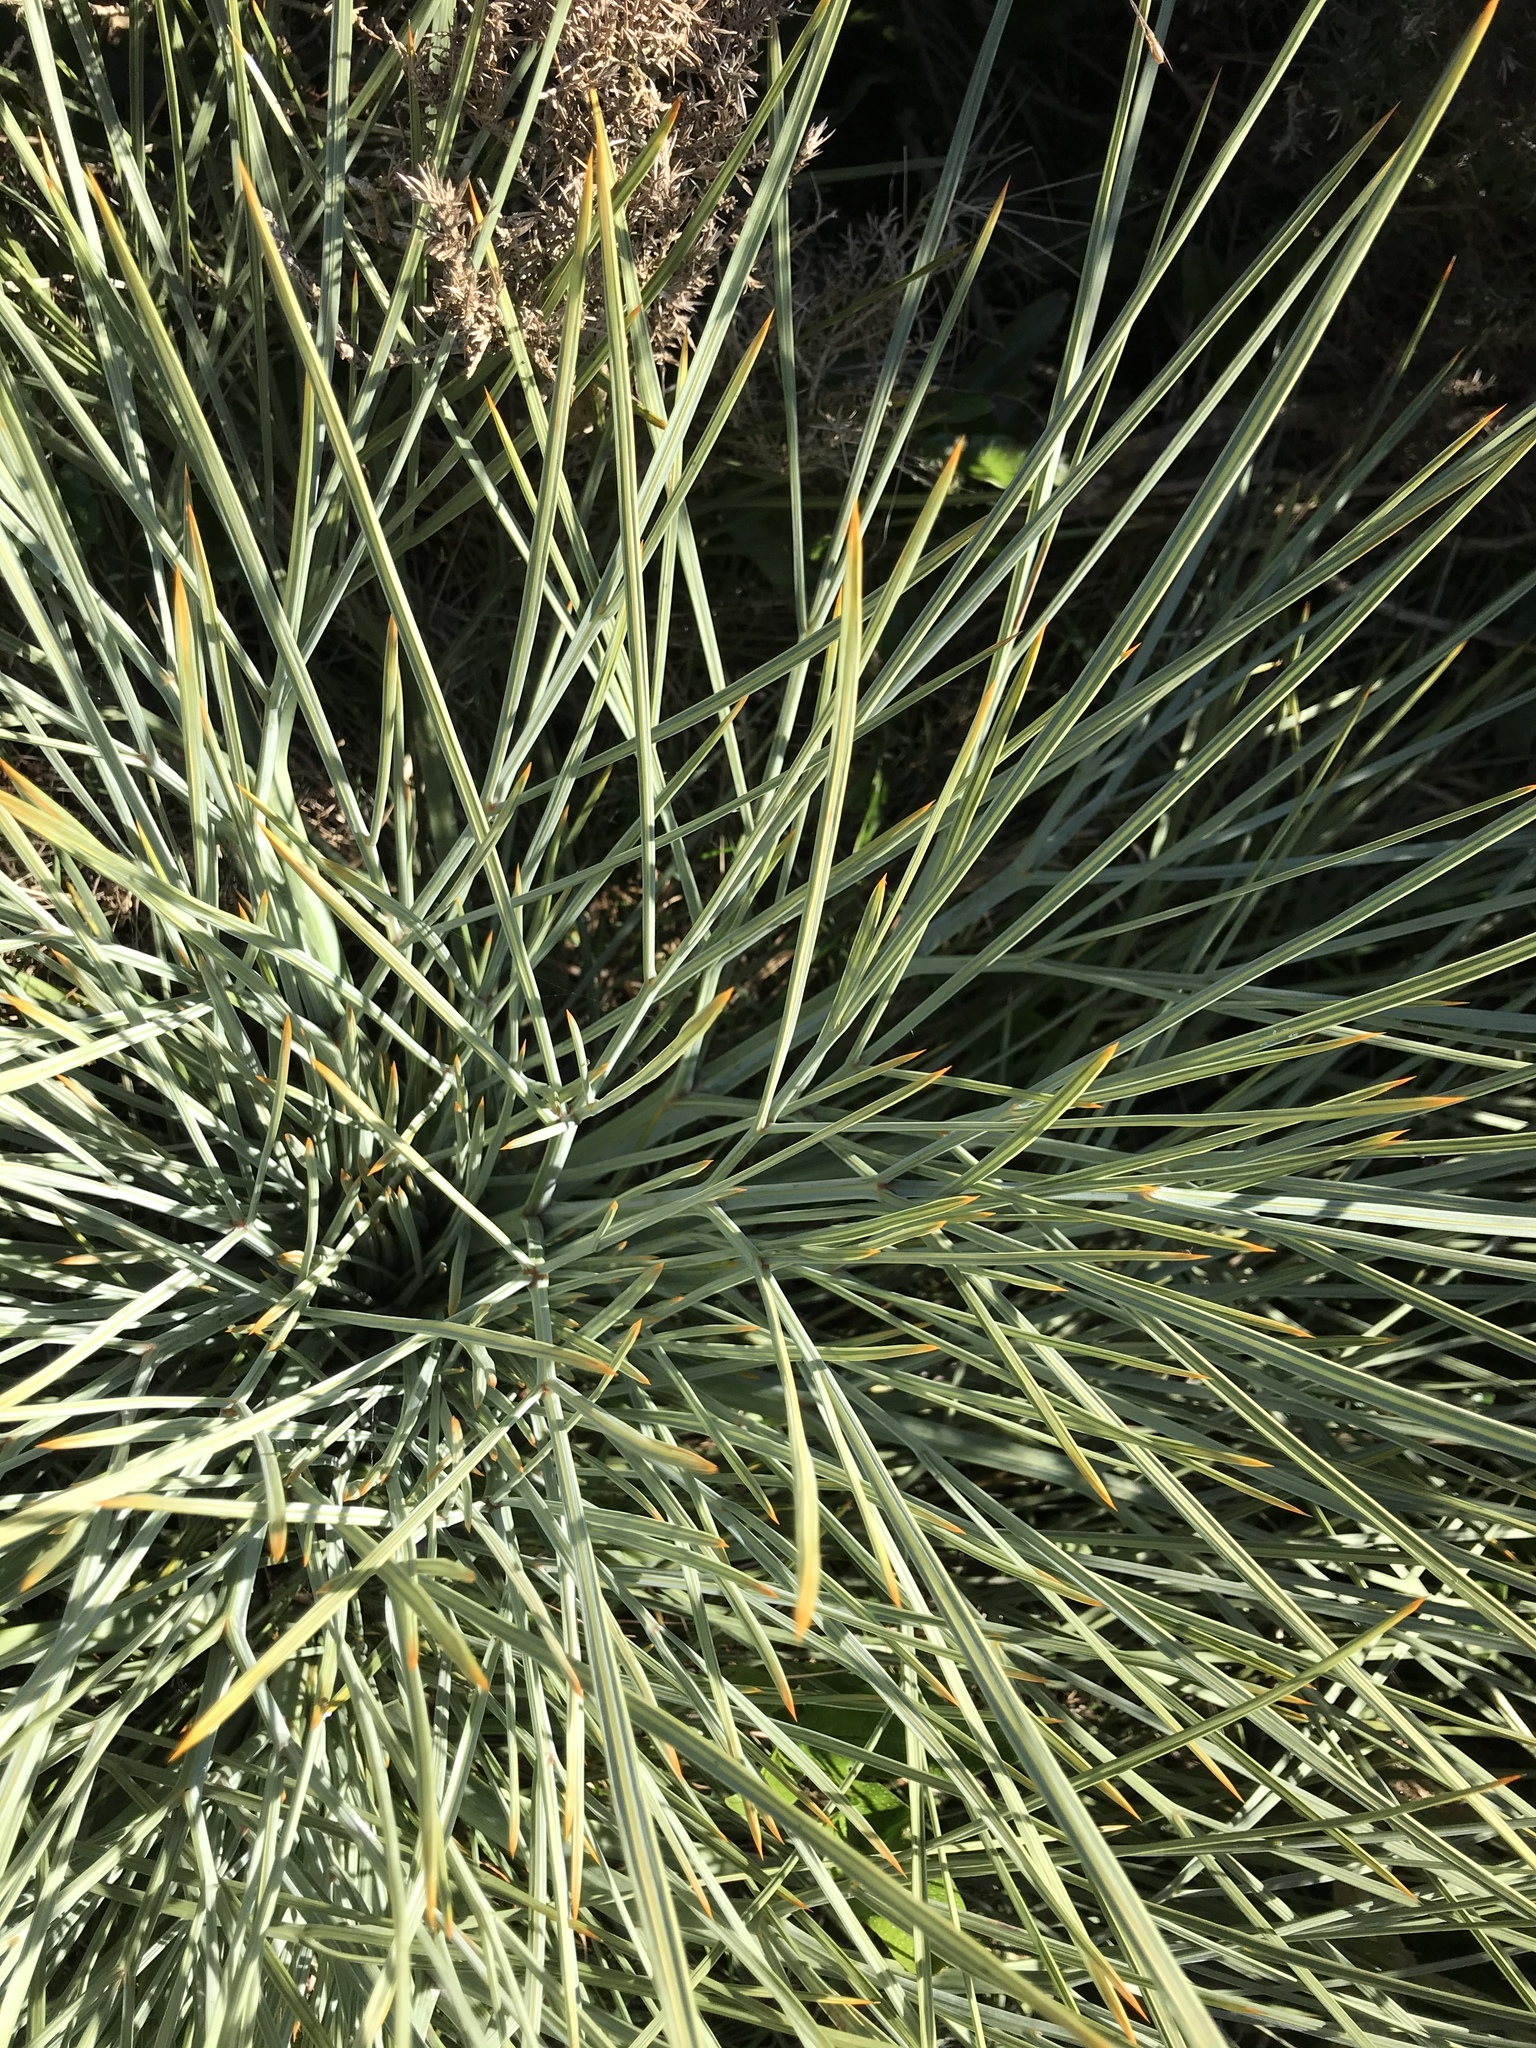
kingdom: Plantae
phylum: Tracheophyta
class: Magnoliopsida
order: Apiales
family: Apiaceae
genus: Aciphylla
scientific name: Aciphylla squarrosa
